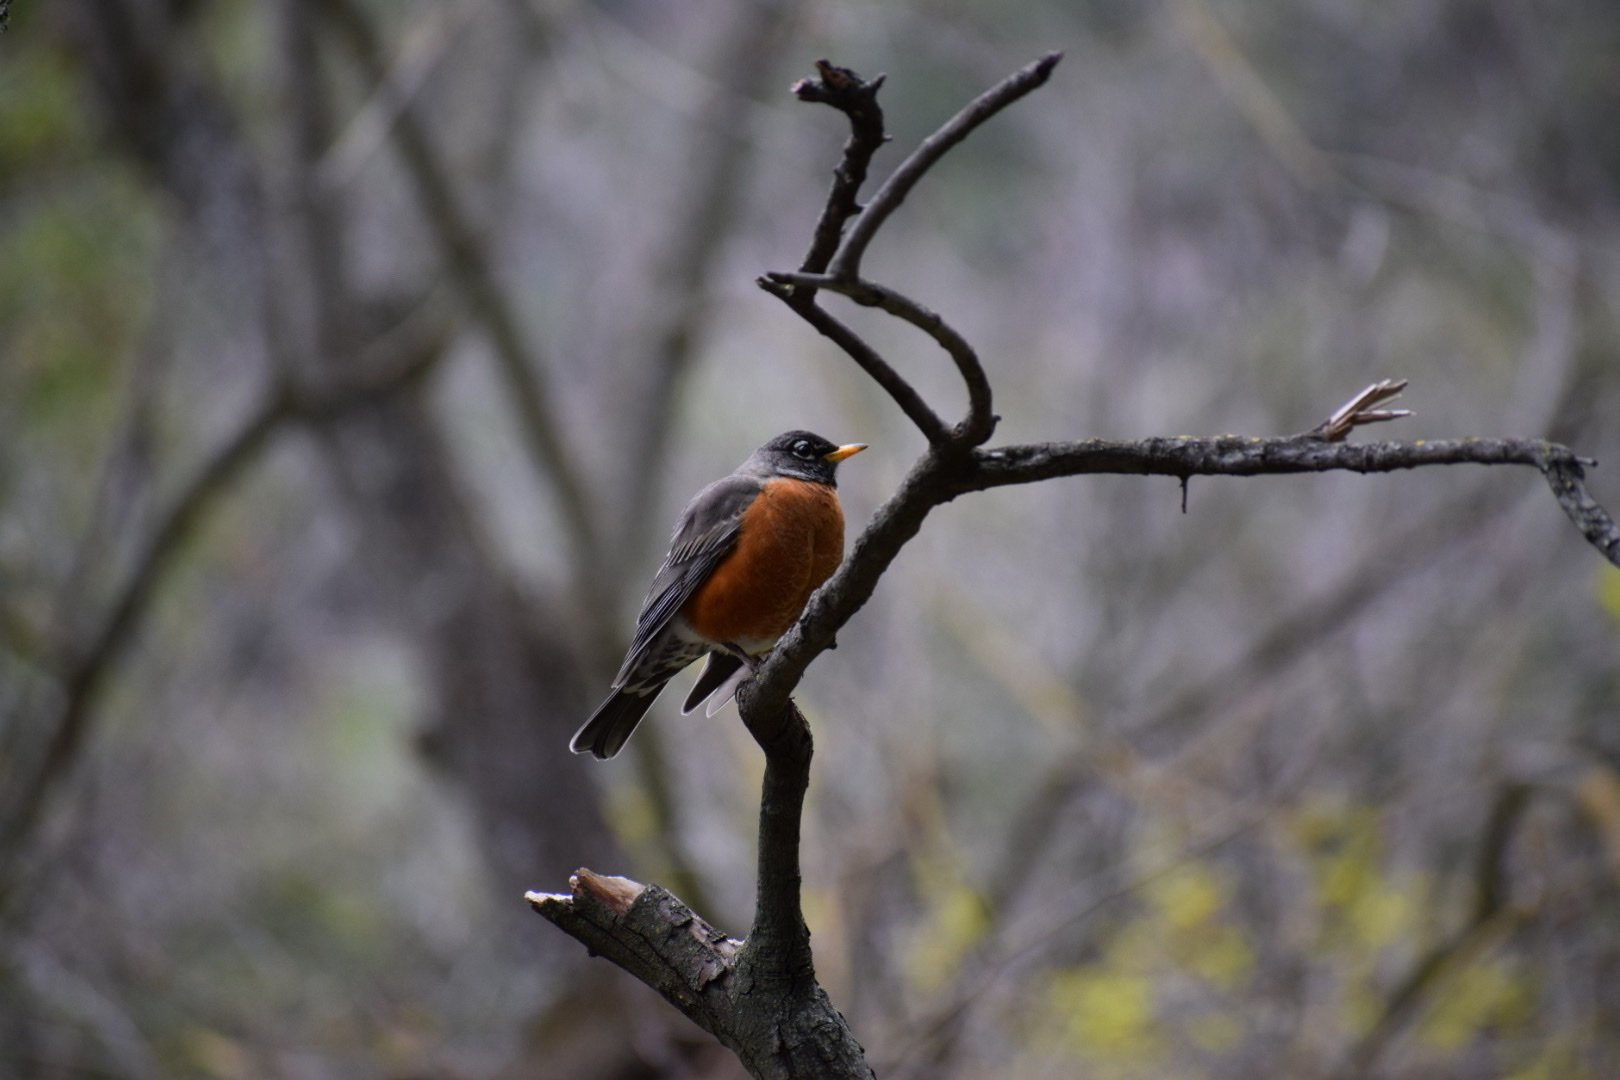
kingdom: Animalia
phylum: Chordata
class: Aves
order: Passeriformes
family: Turdidae
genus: Turdus
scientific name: Turdus migratorius
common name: American robin
